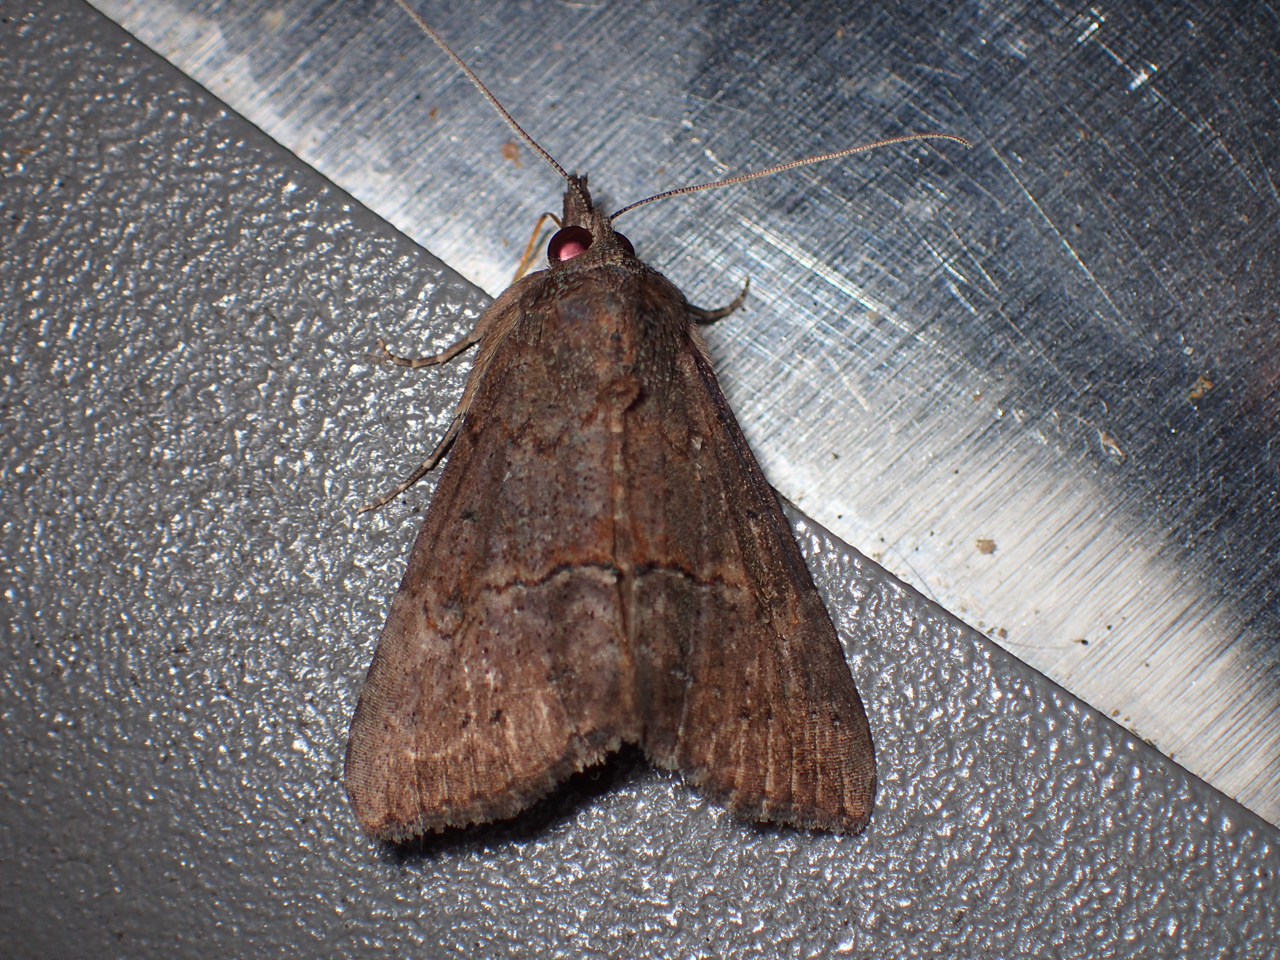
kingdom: Animalia
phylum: Arthropoda
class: Insecta
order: Lepidoptera
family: Erebidae
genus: Hypena
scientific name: Hypena scabra
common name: Green cloverworm
